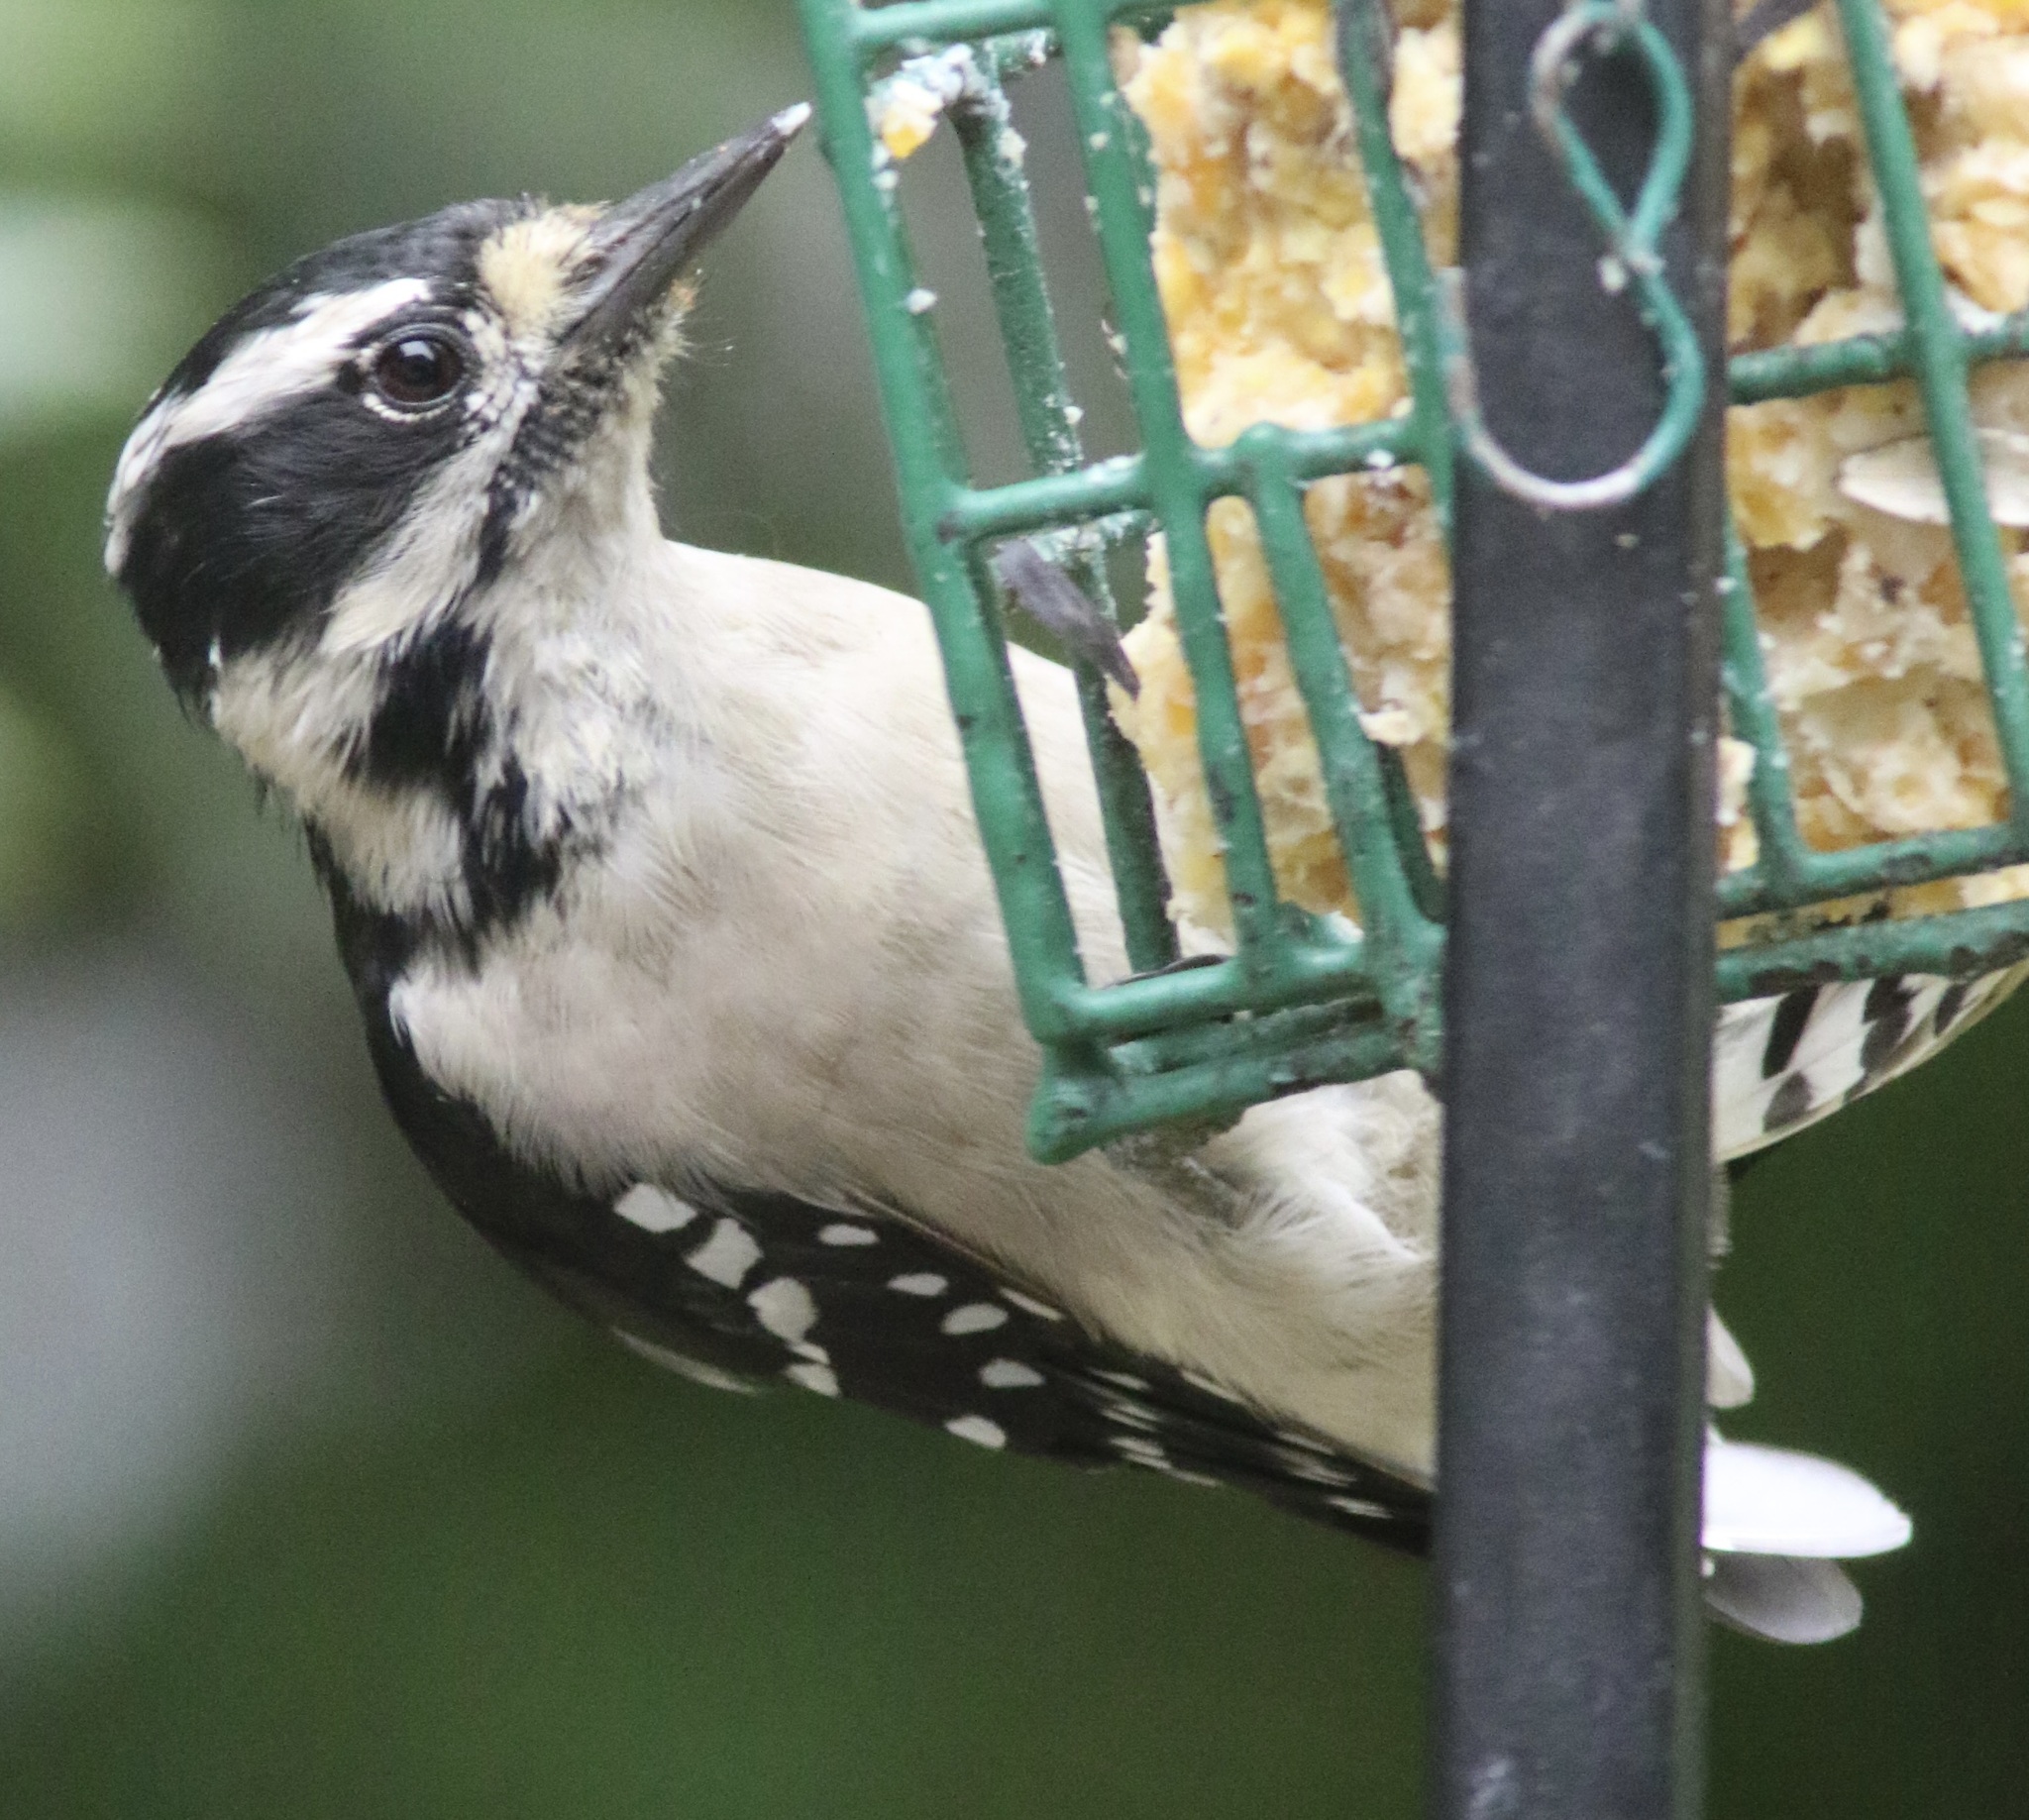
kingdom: Animalia
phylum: Chordata
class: Aves
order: Piciformes
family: Picidae
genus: Dryobates
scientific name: Dryobates pubescens
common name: Downy woodpecker
